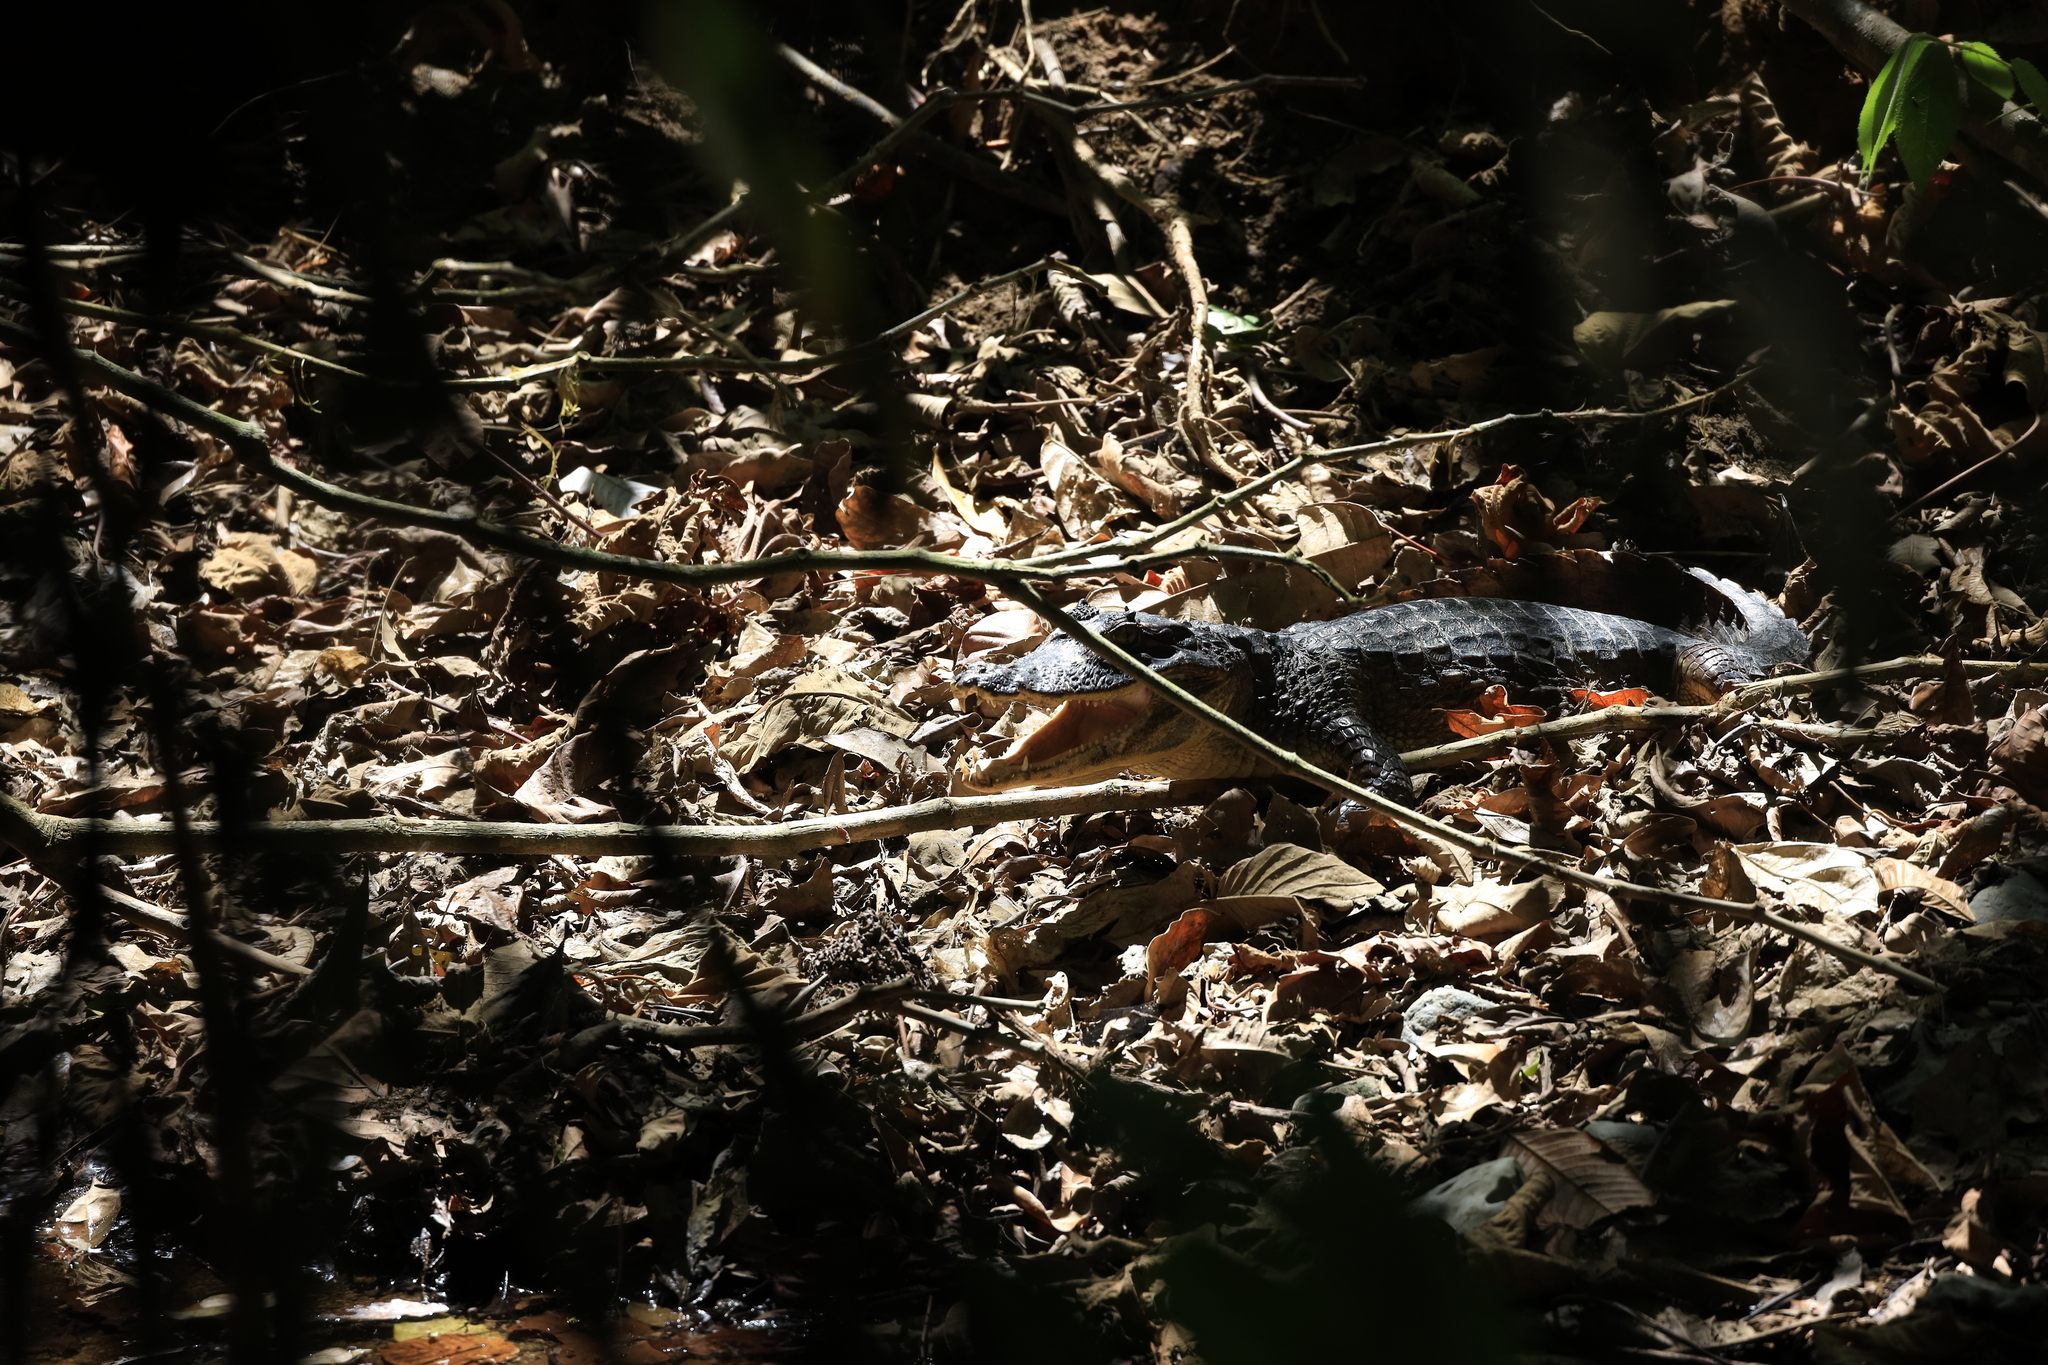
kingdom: Animalia
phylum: Chordata
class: Crocodylia
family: Crocodylidae
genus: Crocodylus
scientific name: Crocodylus acutus
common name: American crocodile
